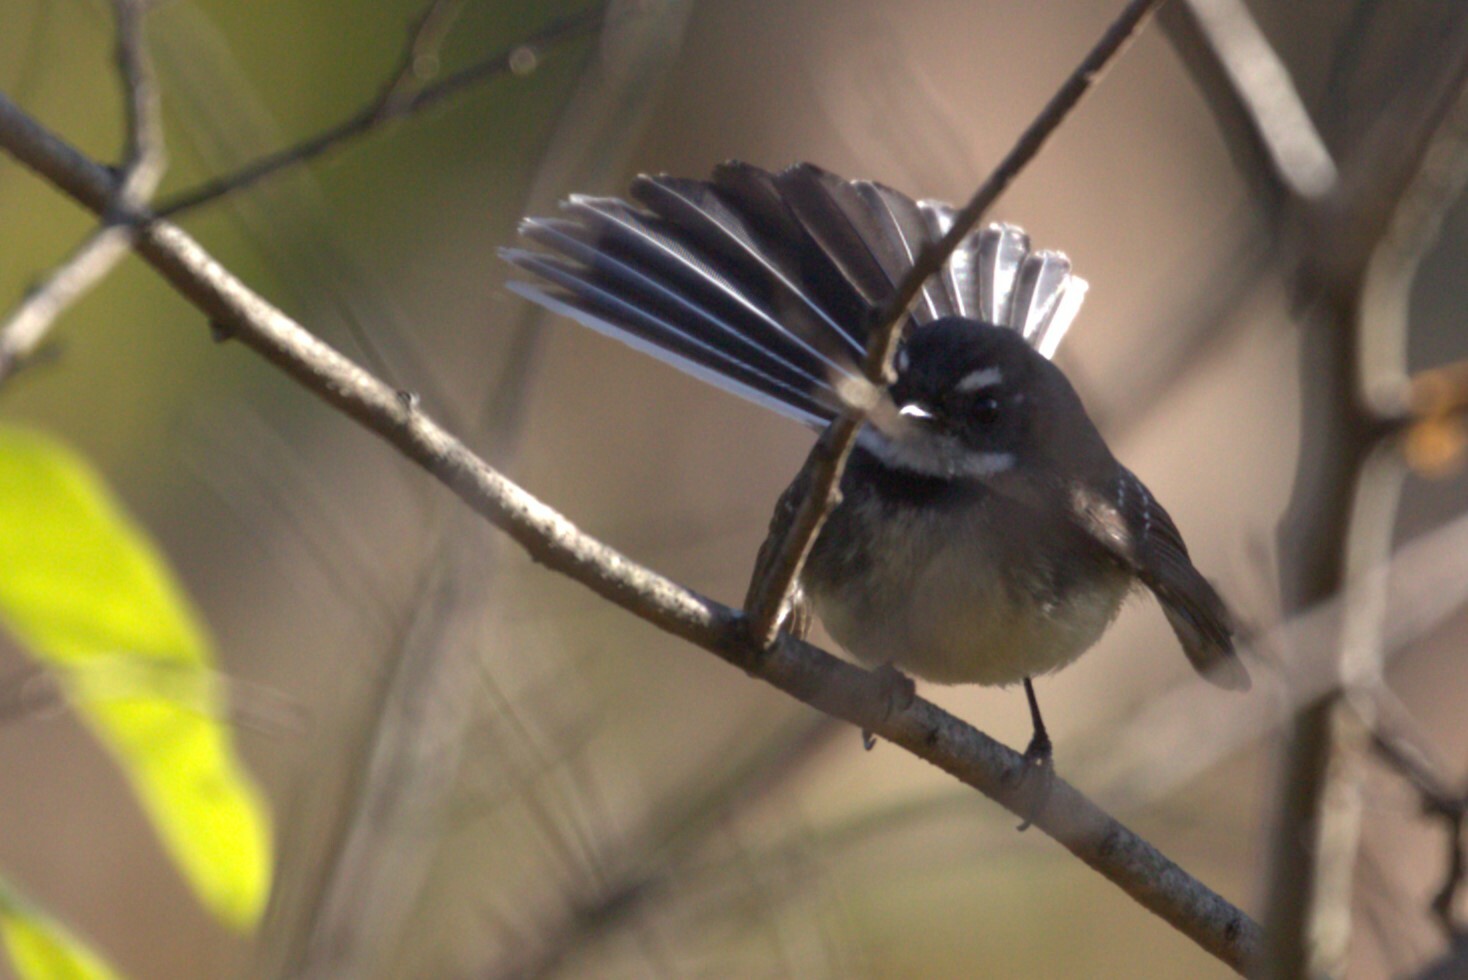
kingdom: Animalia
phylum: Chordata
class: Aves
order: Passeriformes
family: Rhipiduridae
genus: Rhipidura
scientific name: Rhipidura albiscapa
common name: Grey fantail
